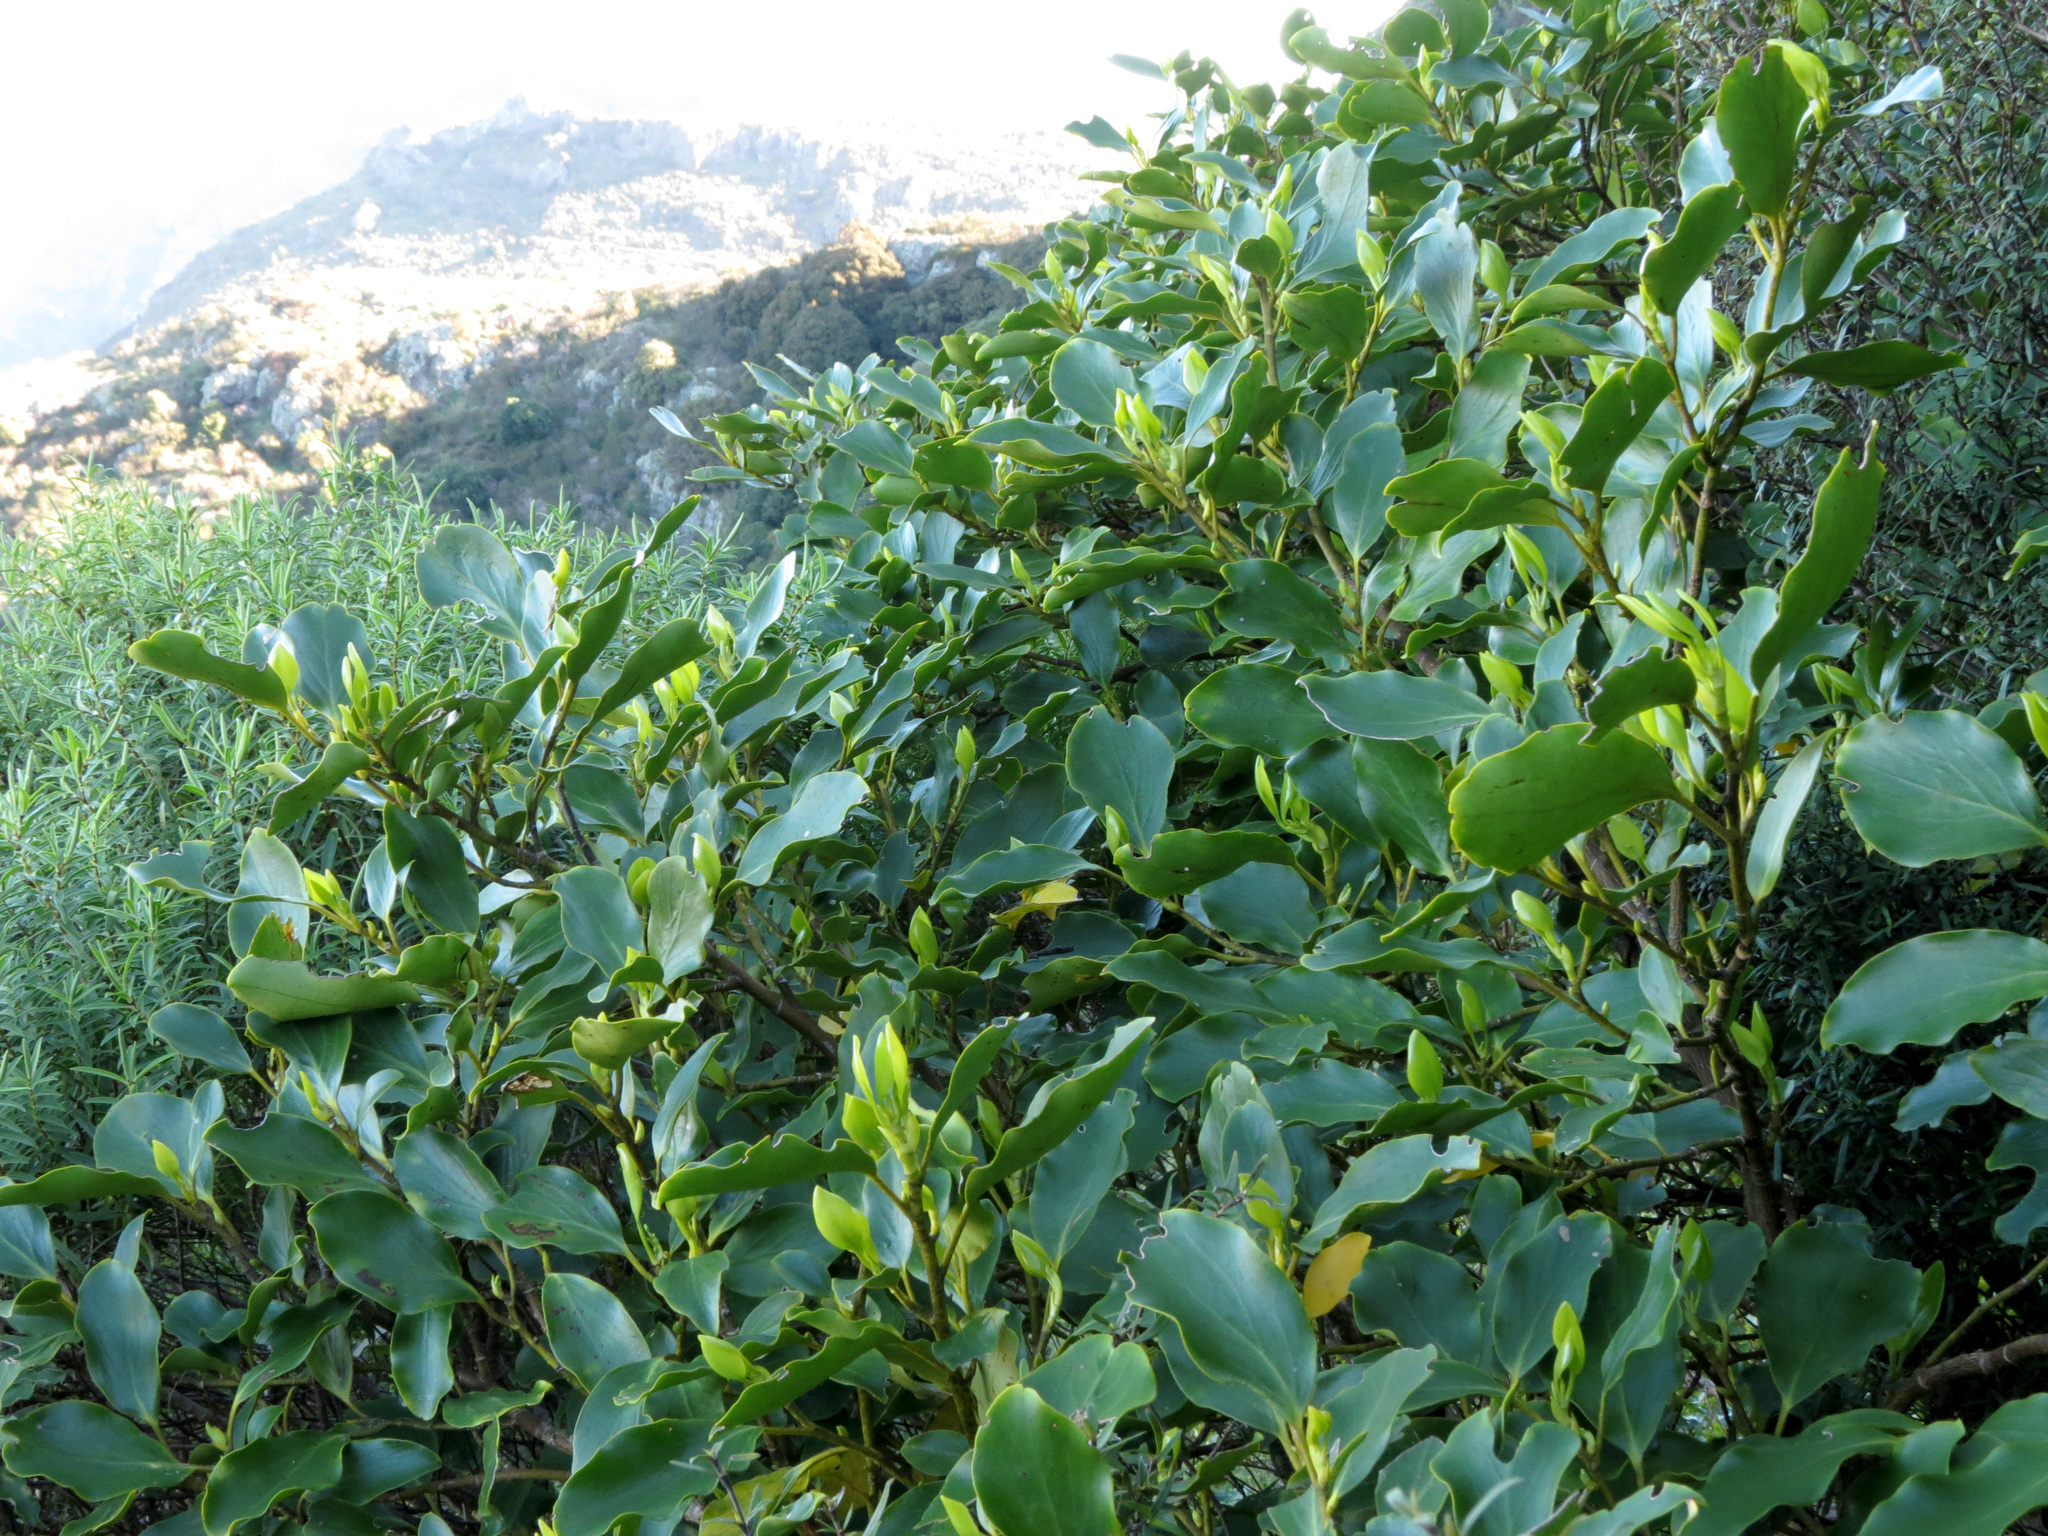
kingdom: Plantae
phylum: Tracheophyta
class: Magnoliopsida
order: Apiales
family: Griseliniaceae
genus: Griselinia
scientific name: Griselinia littoralis
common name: New zealand broadleaf
